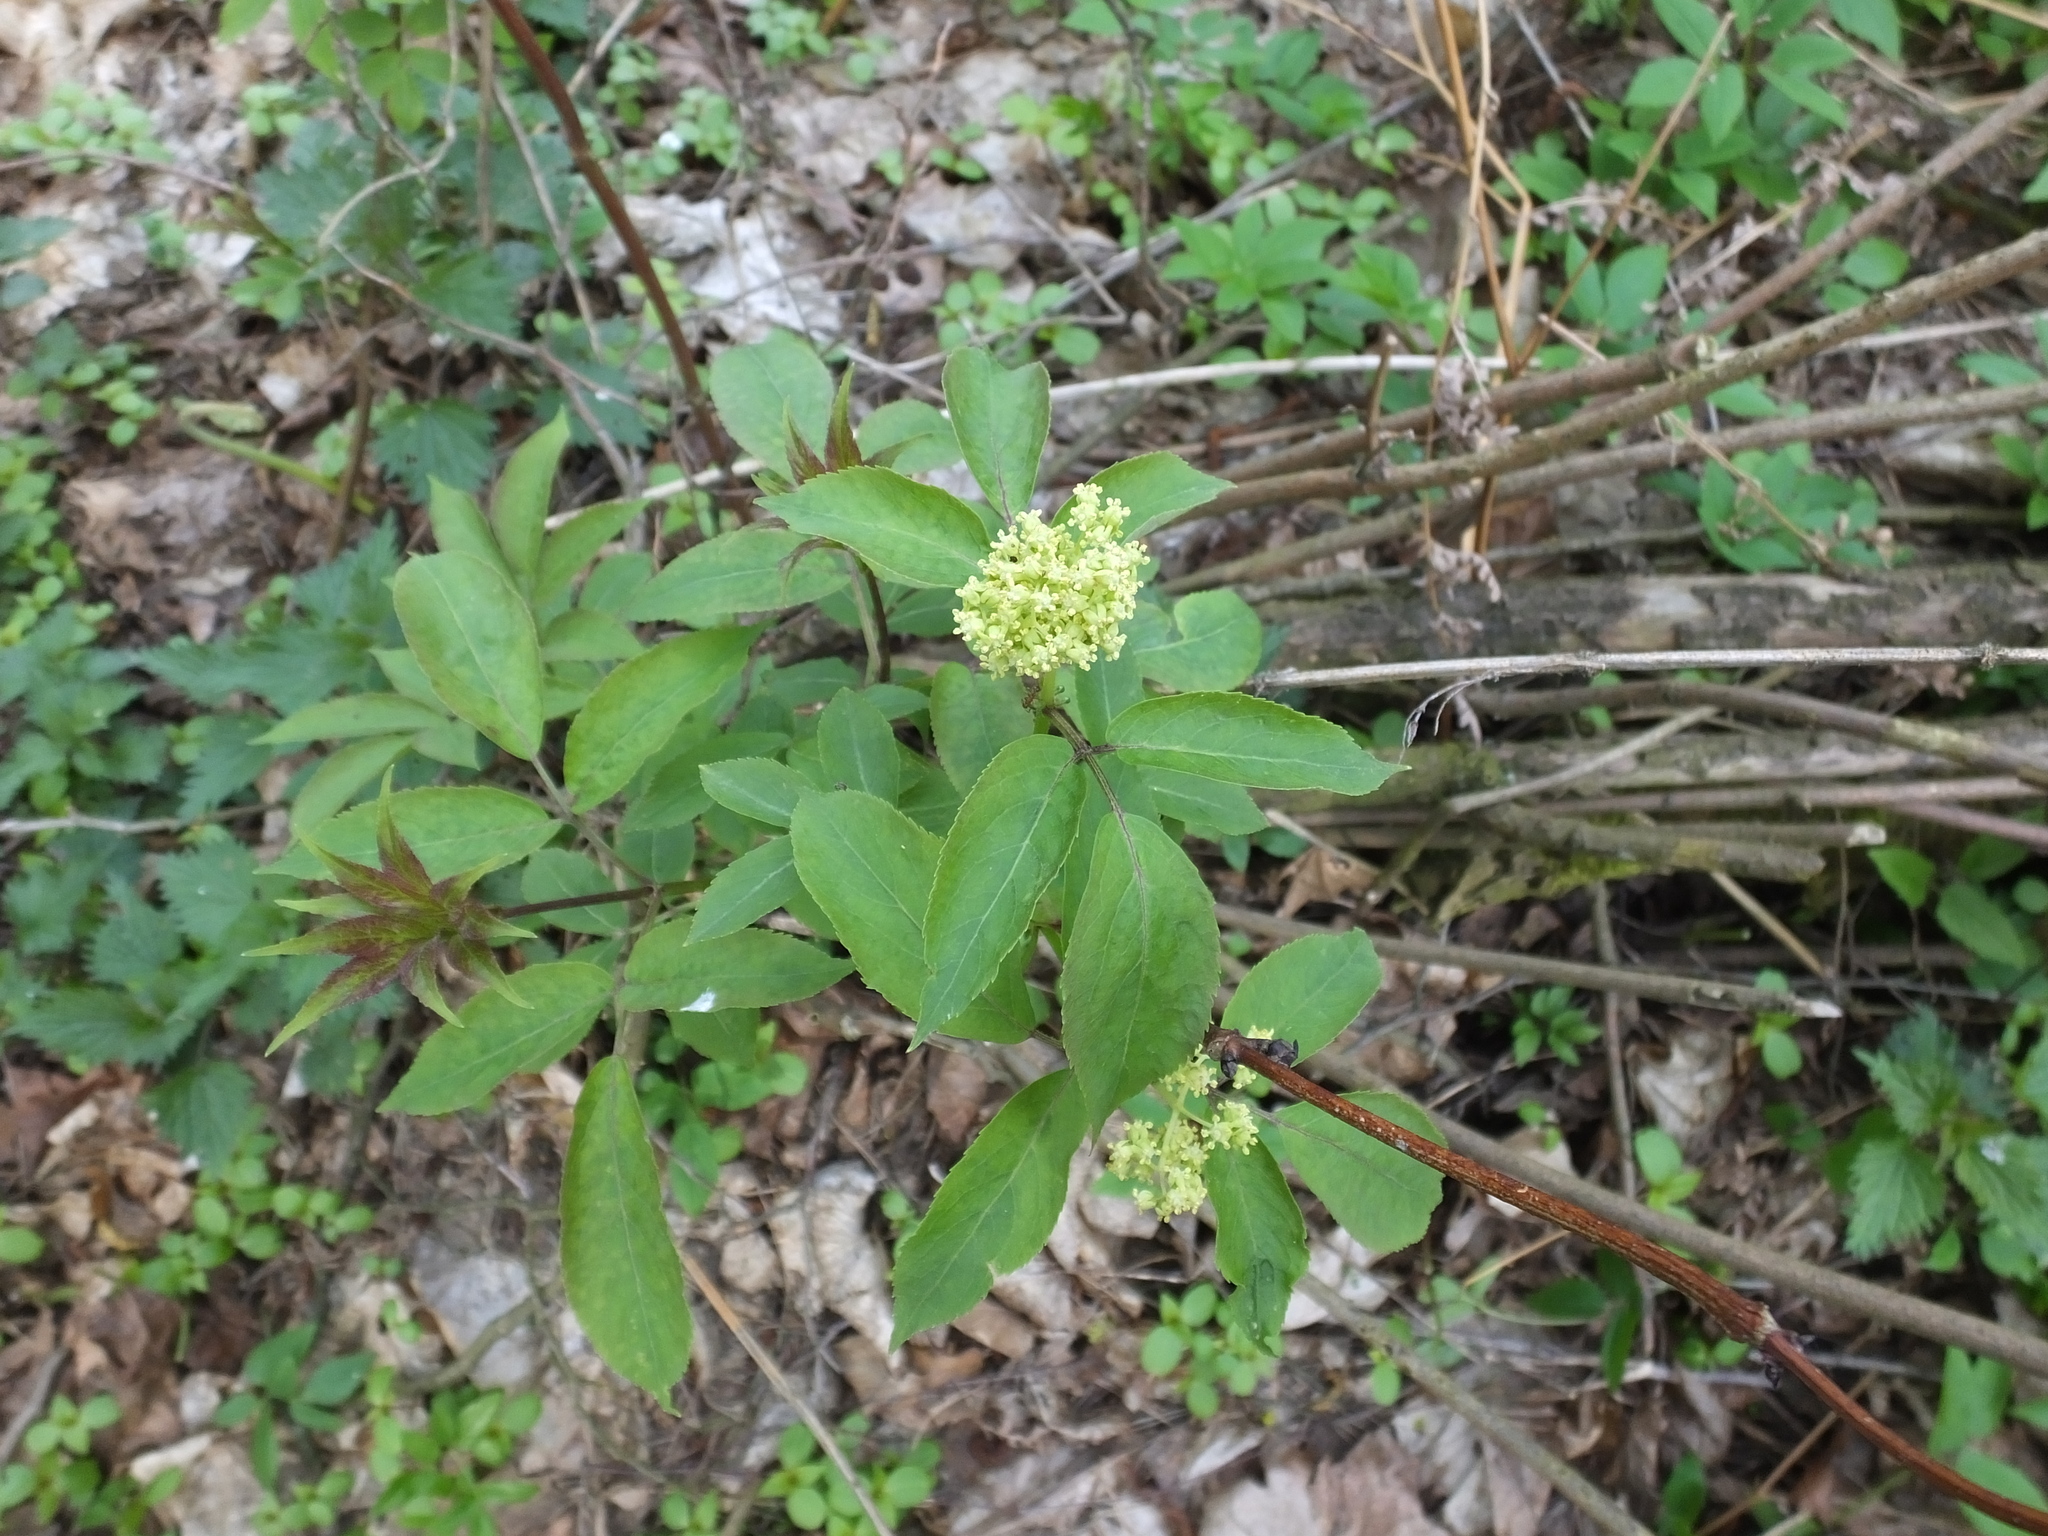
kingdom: Plantae
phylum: Tracheophyta
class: Magnoliopsida
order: Dipsacales
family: Viburnaceae
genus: Sambucus
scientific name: Sambucus racemosa
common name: Red-berried elder
